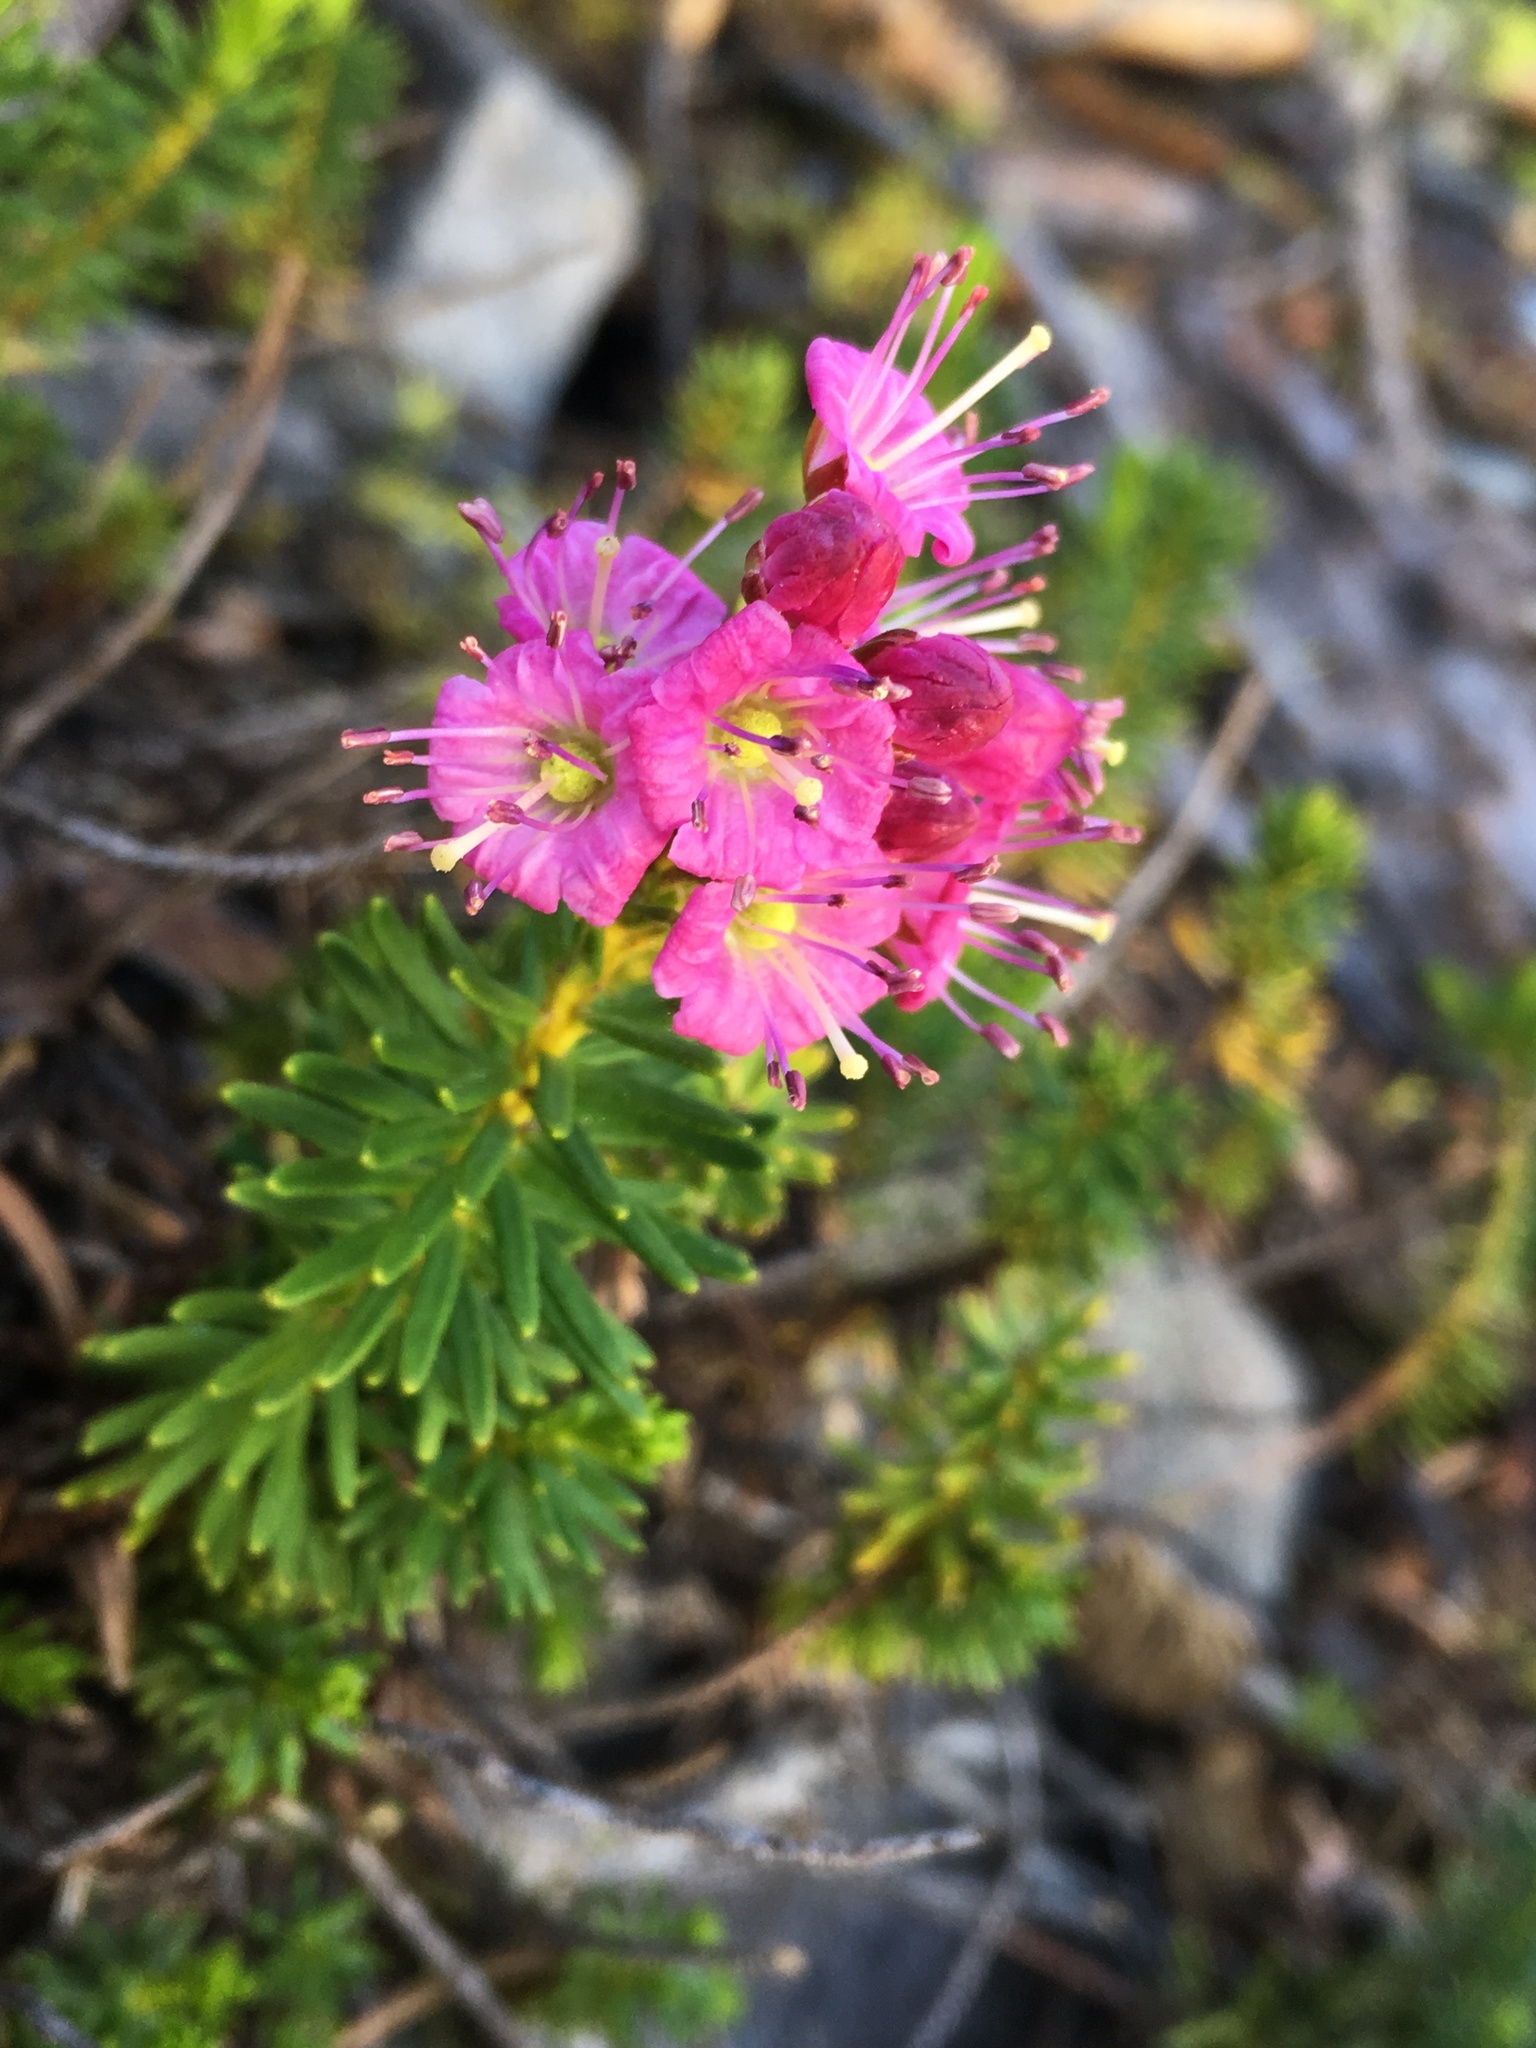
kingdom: Plantae
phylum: Tracheophyta
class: Magnoliopsida
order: Ericales
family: Ericaceae
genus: Phyllodoce
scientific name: Phyllodoce breweri
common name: Brewer's mountain-heather
